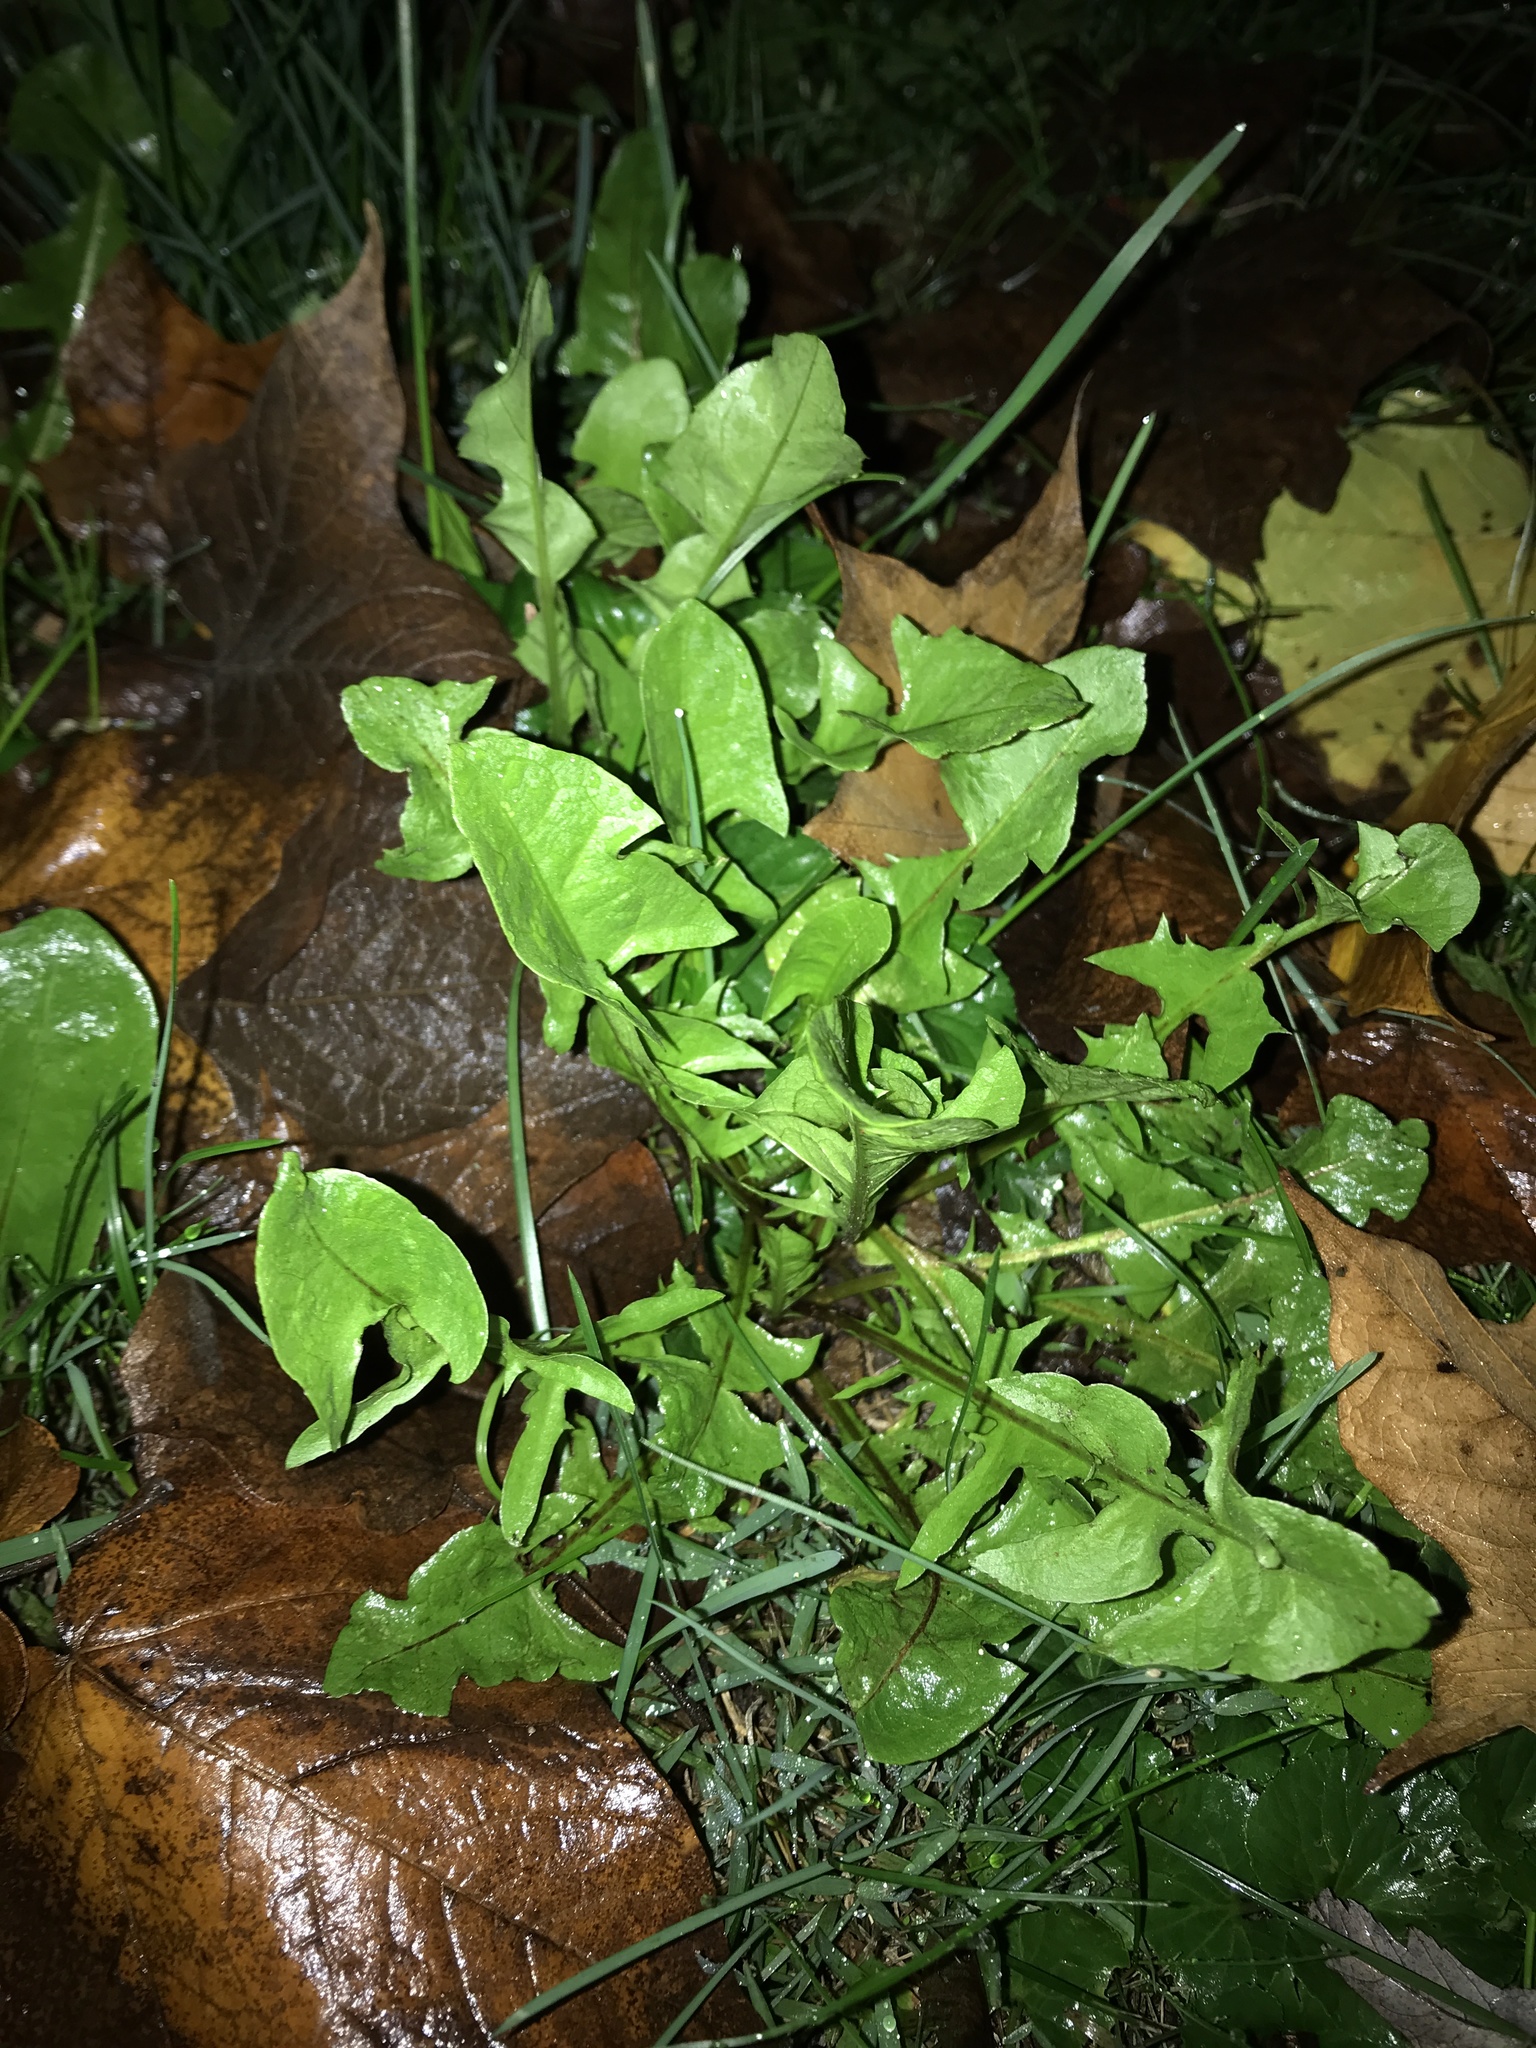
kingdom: Plantae
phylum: Tracheophyta
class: Magnoliopsida
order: Asterales
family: Asteraceae
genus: Taraxacum
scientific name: Taraxacum officinale
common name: Common dandelion
